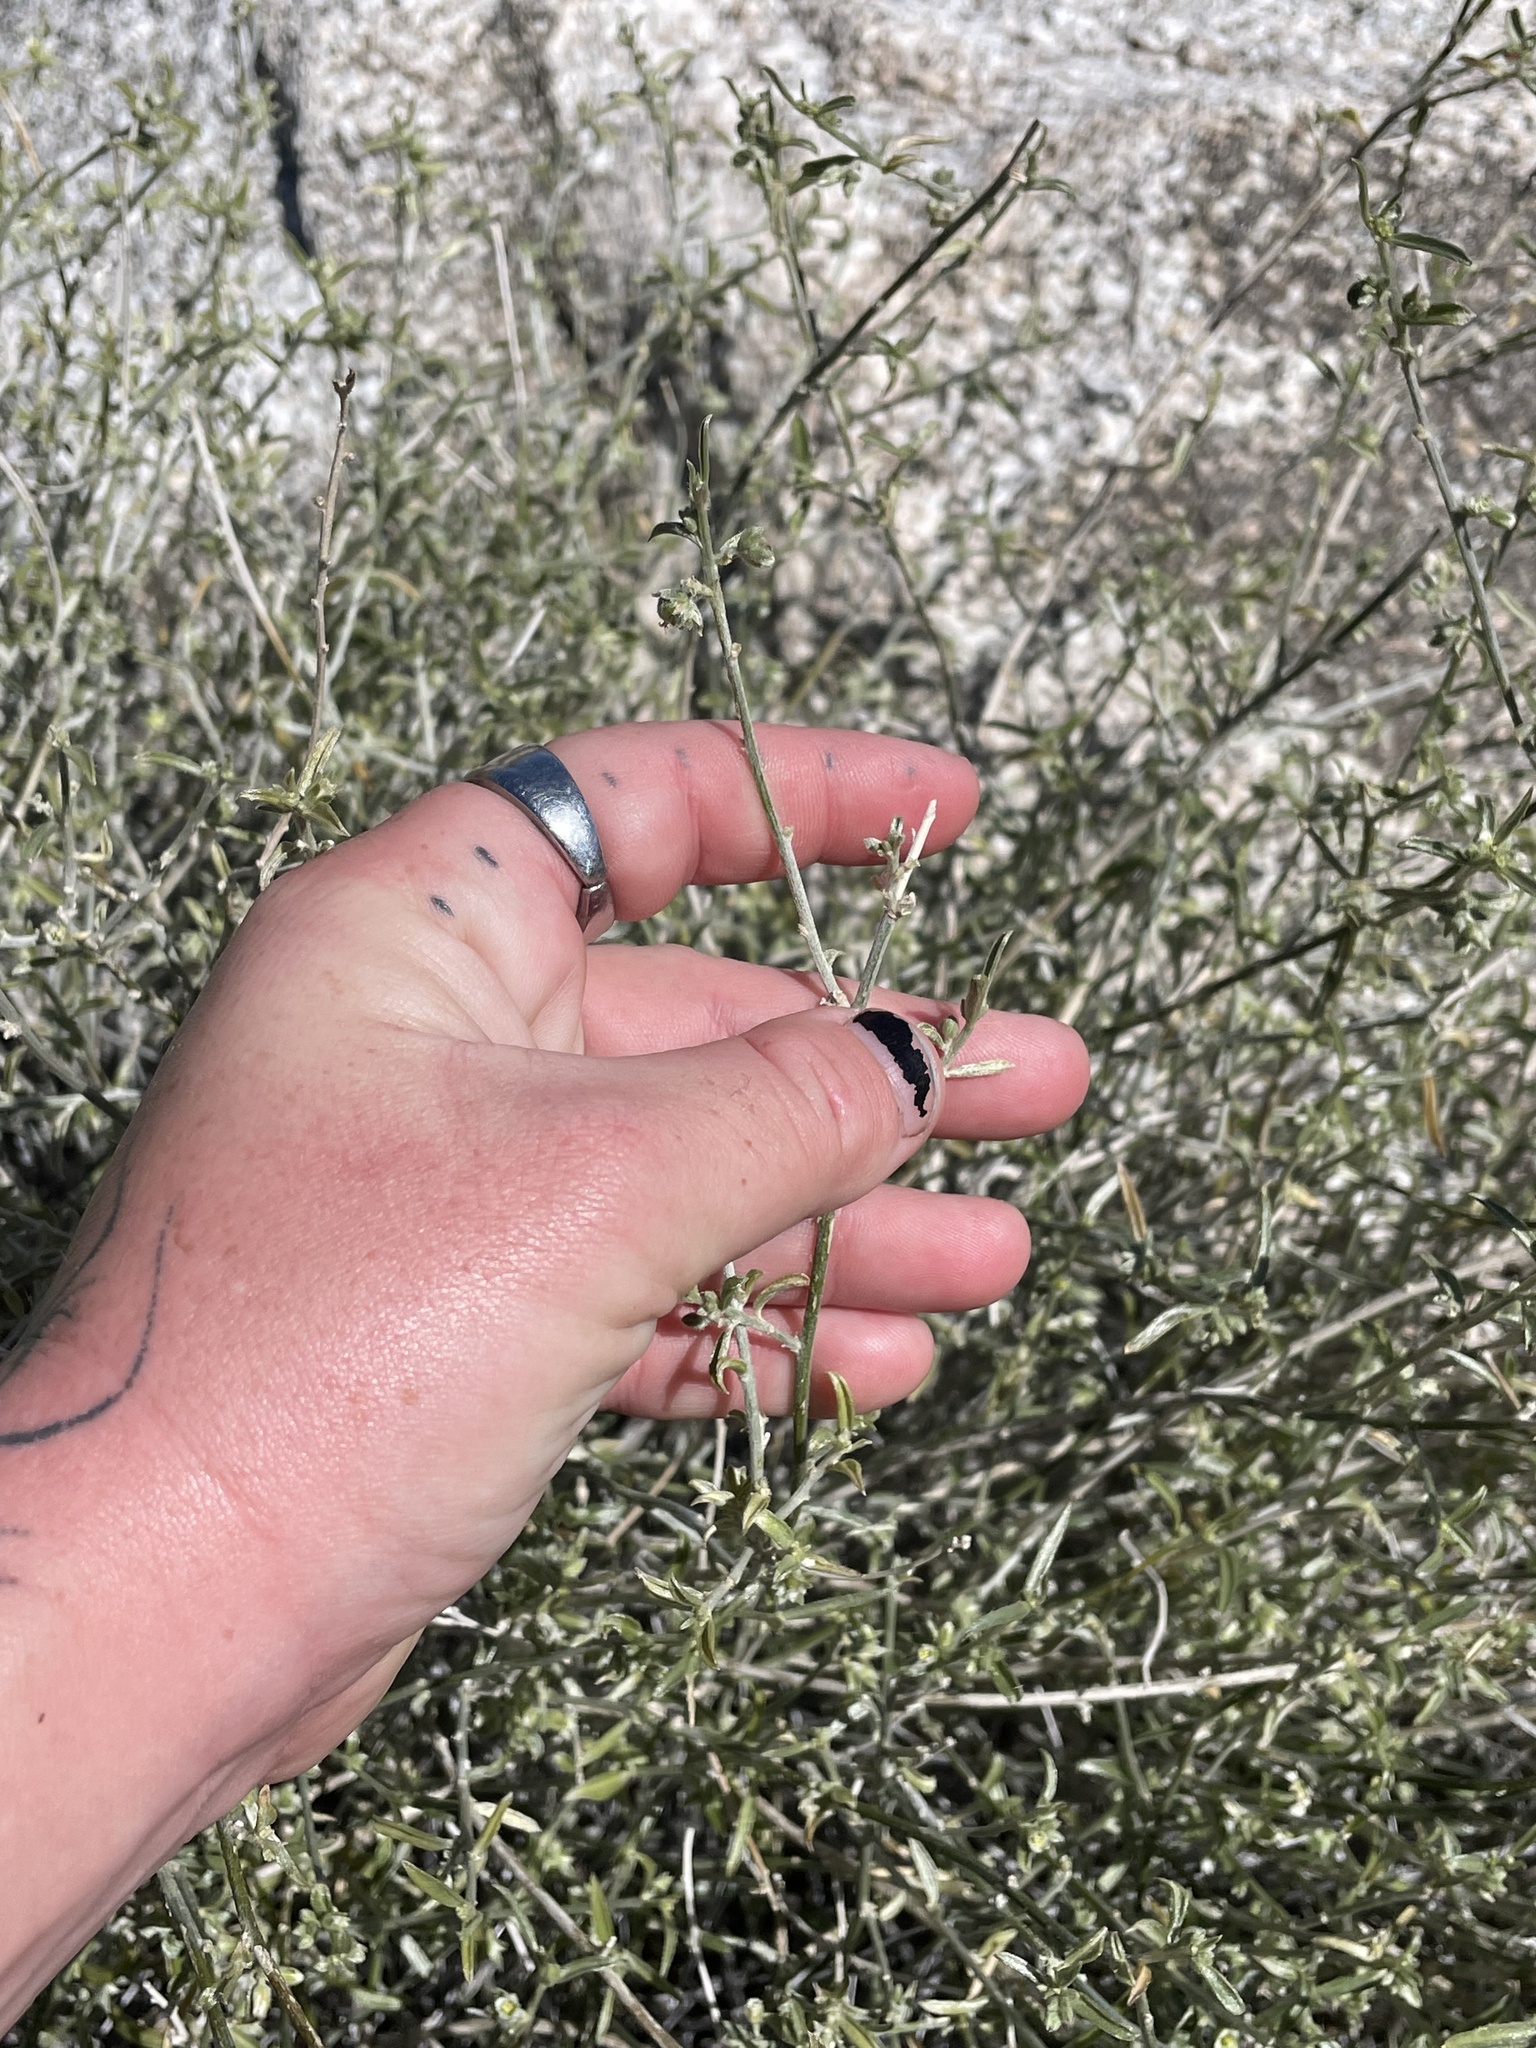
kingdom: Plantae
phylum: Tracheophyta
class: Magnoliopsida
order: Malpighiales
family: Euphorbiaceae
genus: Ditaxis
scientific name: Ditaxis lanceolata
